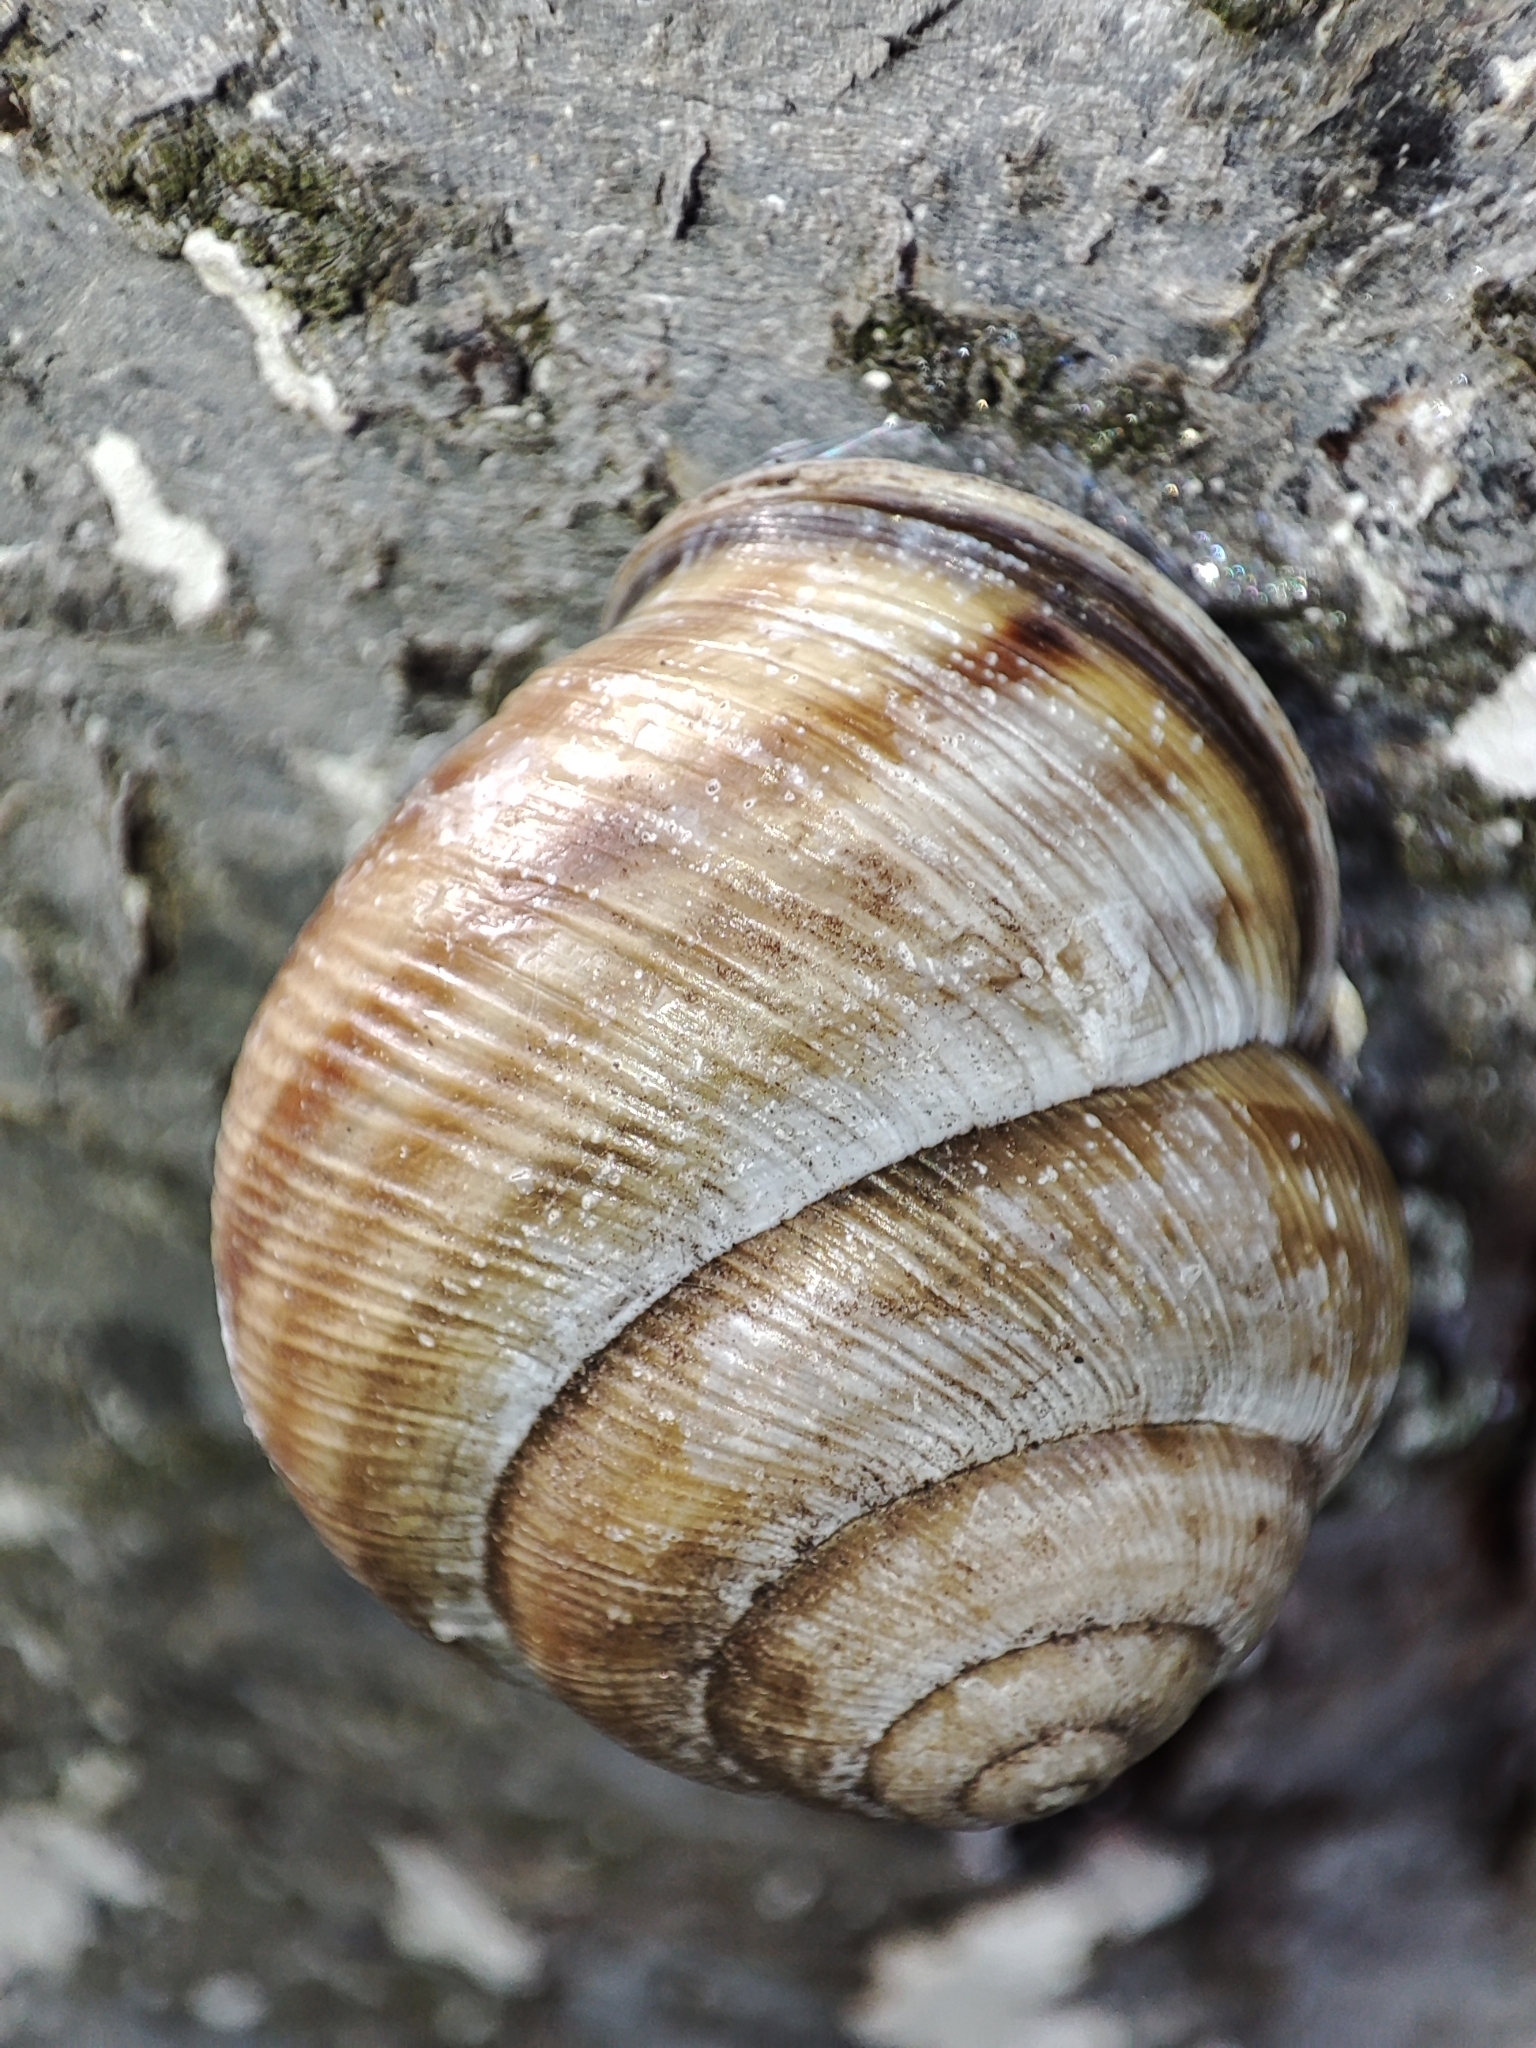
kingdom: Animalia
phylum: Mollusca
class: Gastropoda
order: Stylommatophora
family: Helicidae
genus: Caucasotachea
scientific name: Caucasotachea vindobonensis
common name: European helicid land snail
